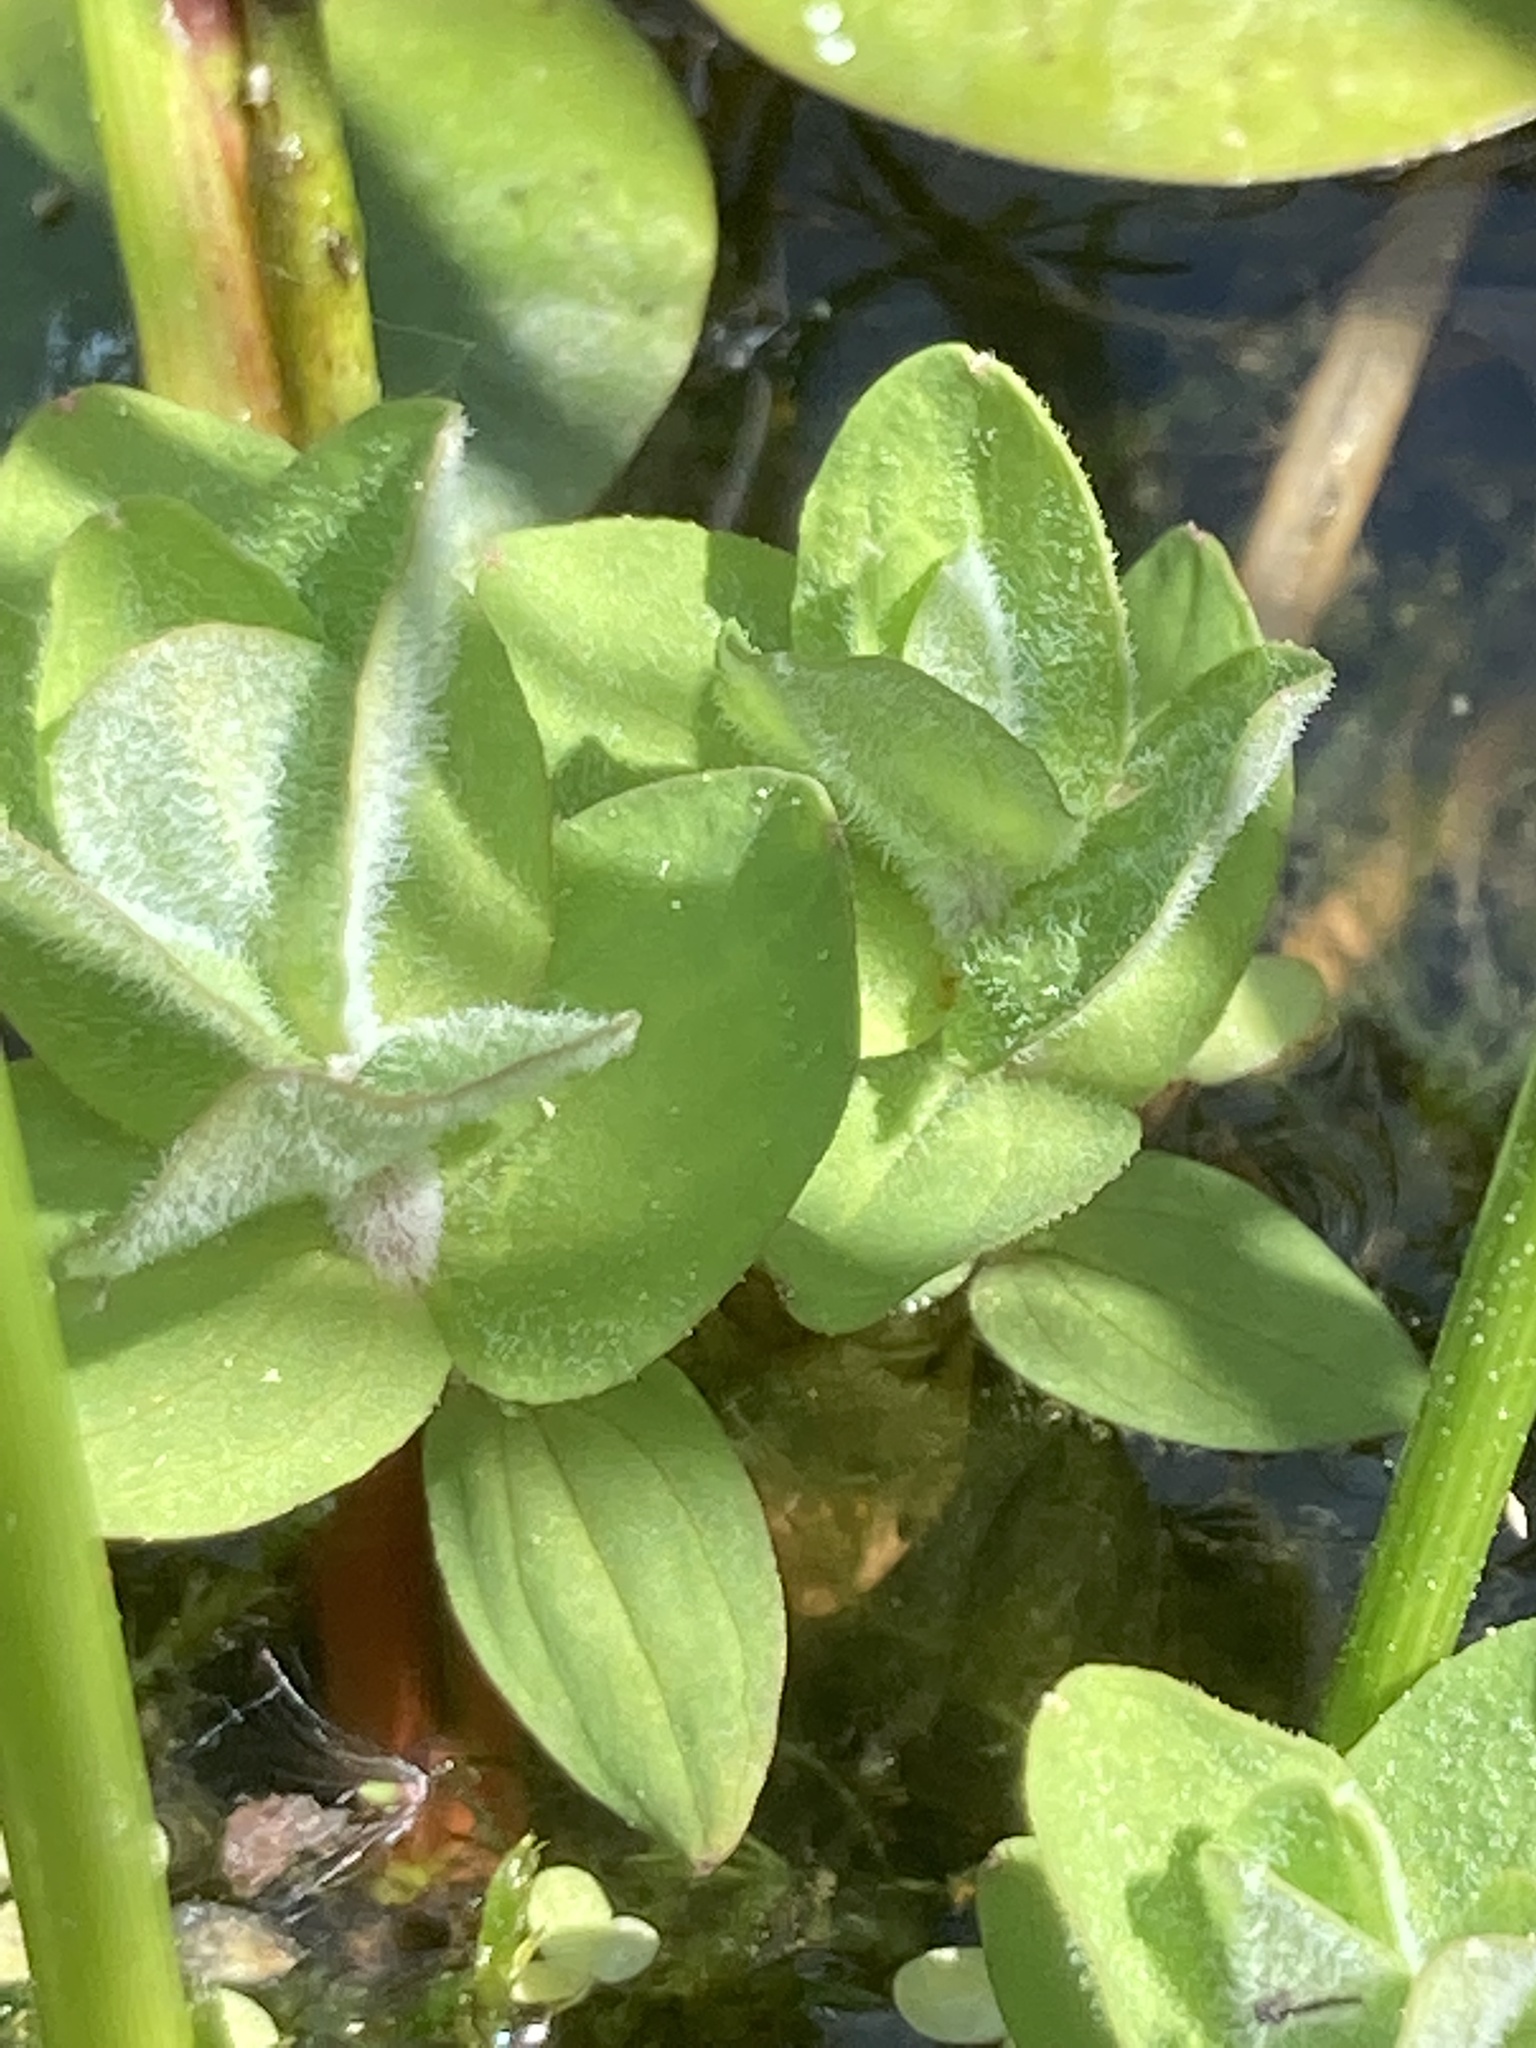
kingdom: Plantae
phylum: Tracheophyta
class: Magnoliopsida
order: Malpighiales
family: Hypericaceae
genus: Hypericum
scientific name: Hypericum elodes
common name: Marsh st. john's-wort
